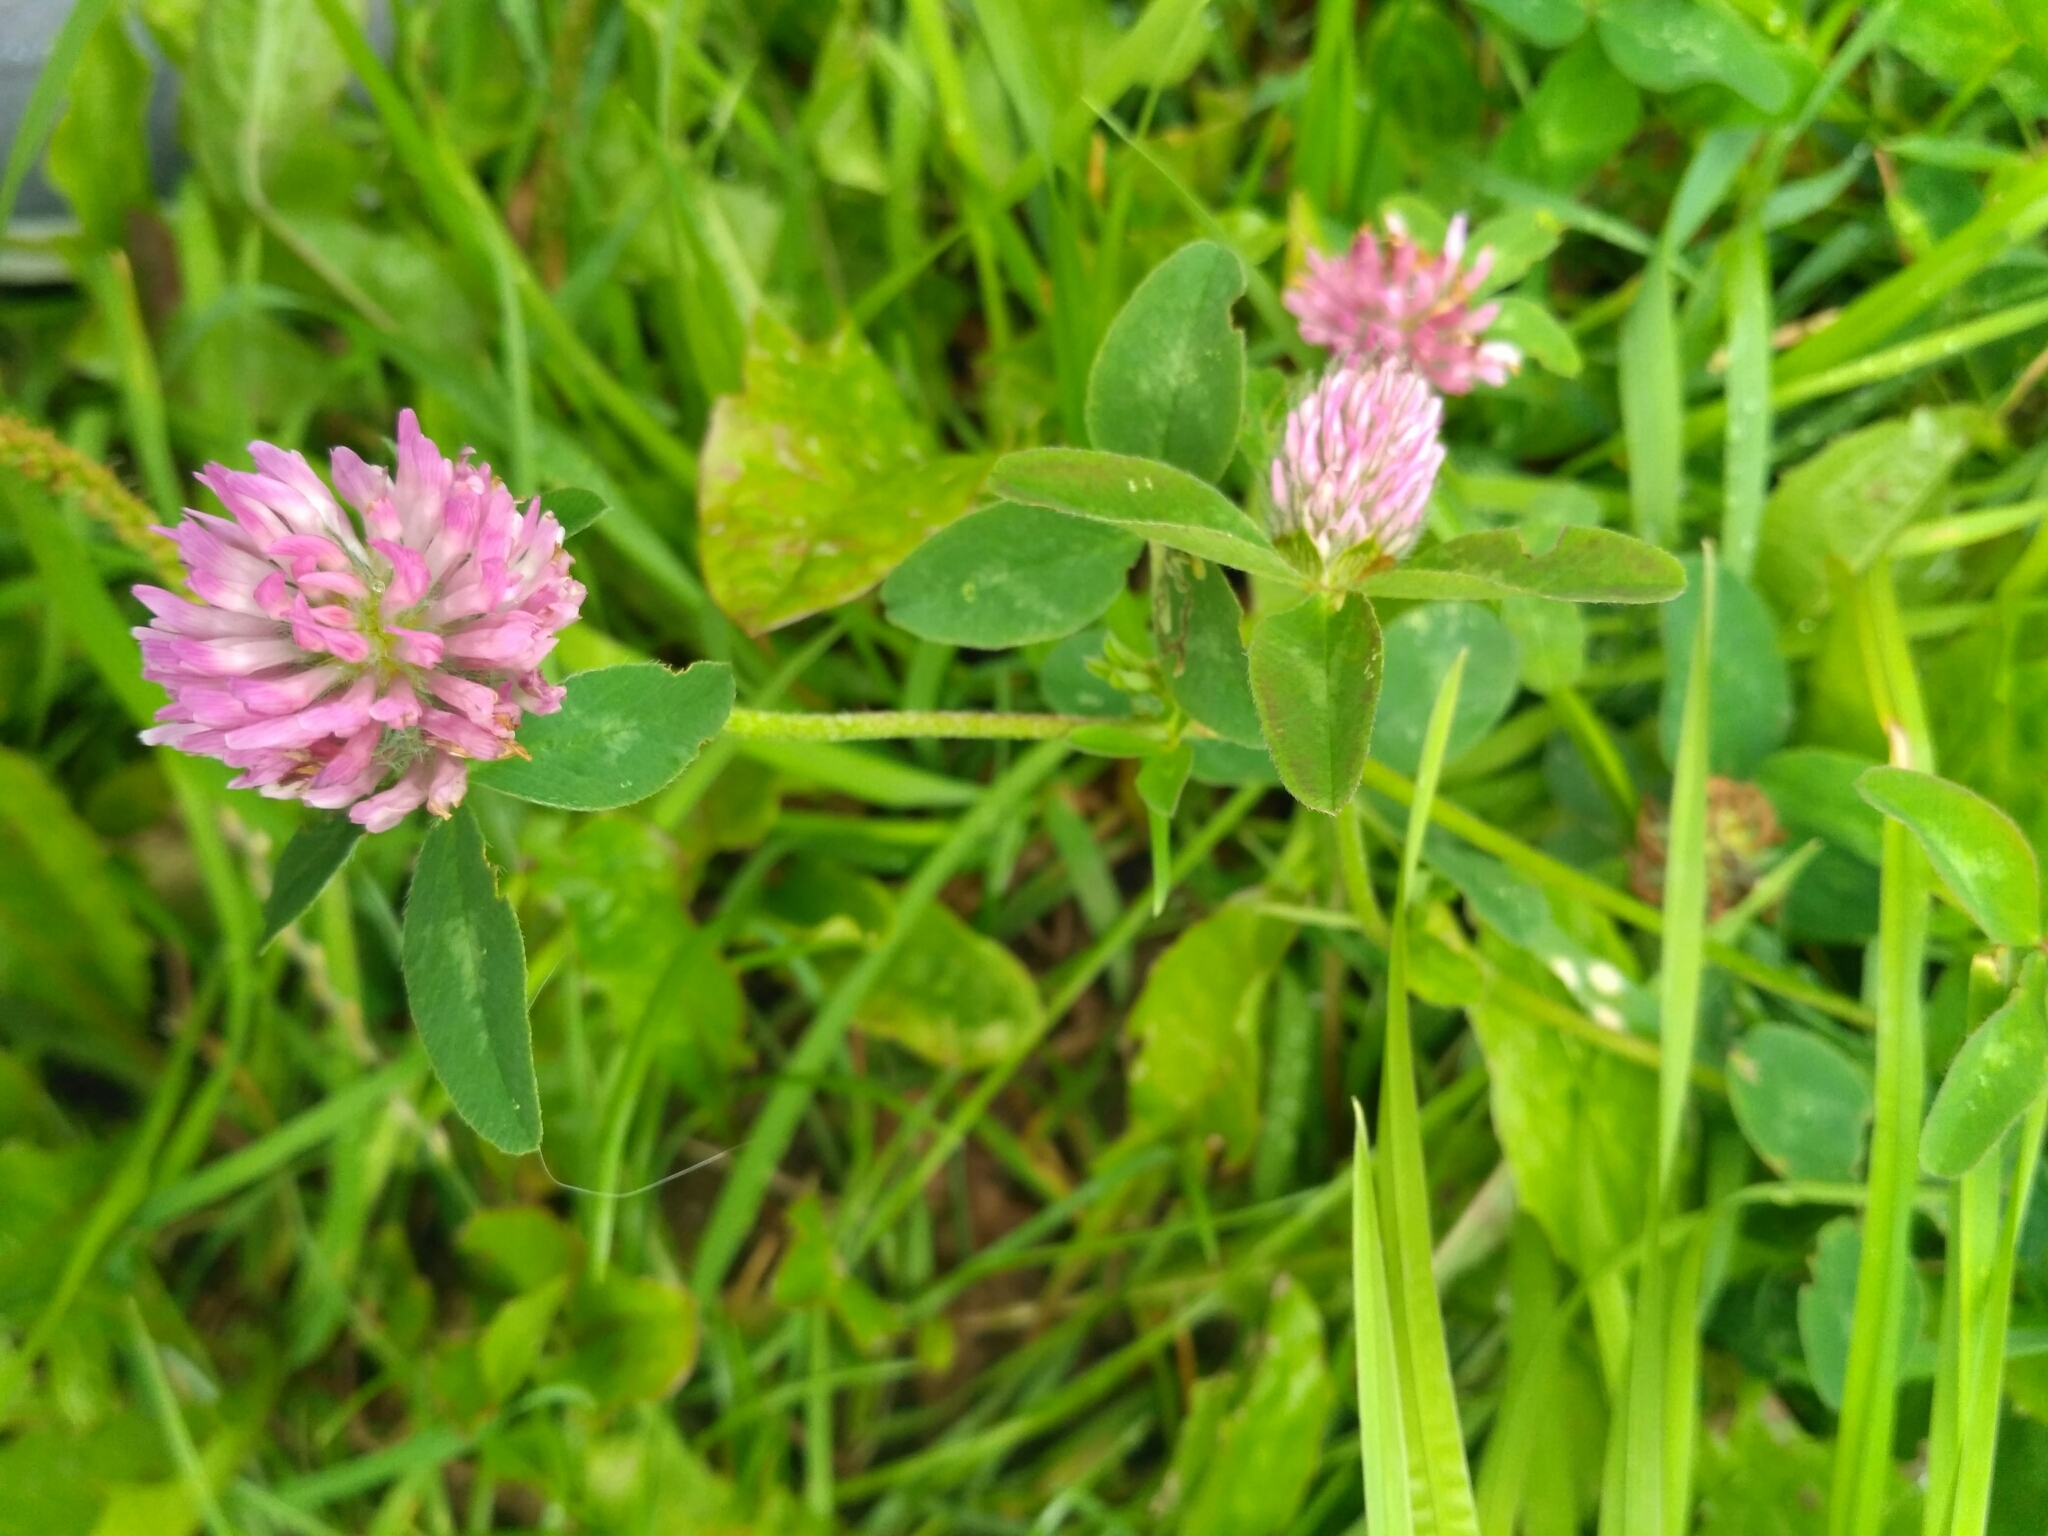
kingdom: Plantae
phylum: Tracheophyta
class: Magnoliopsida
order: Fabales
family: Fabaceae
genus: Trifolium
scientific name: Trifolium pratense
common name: Red clover
